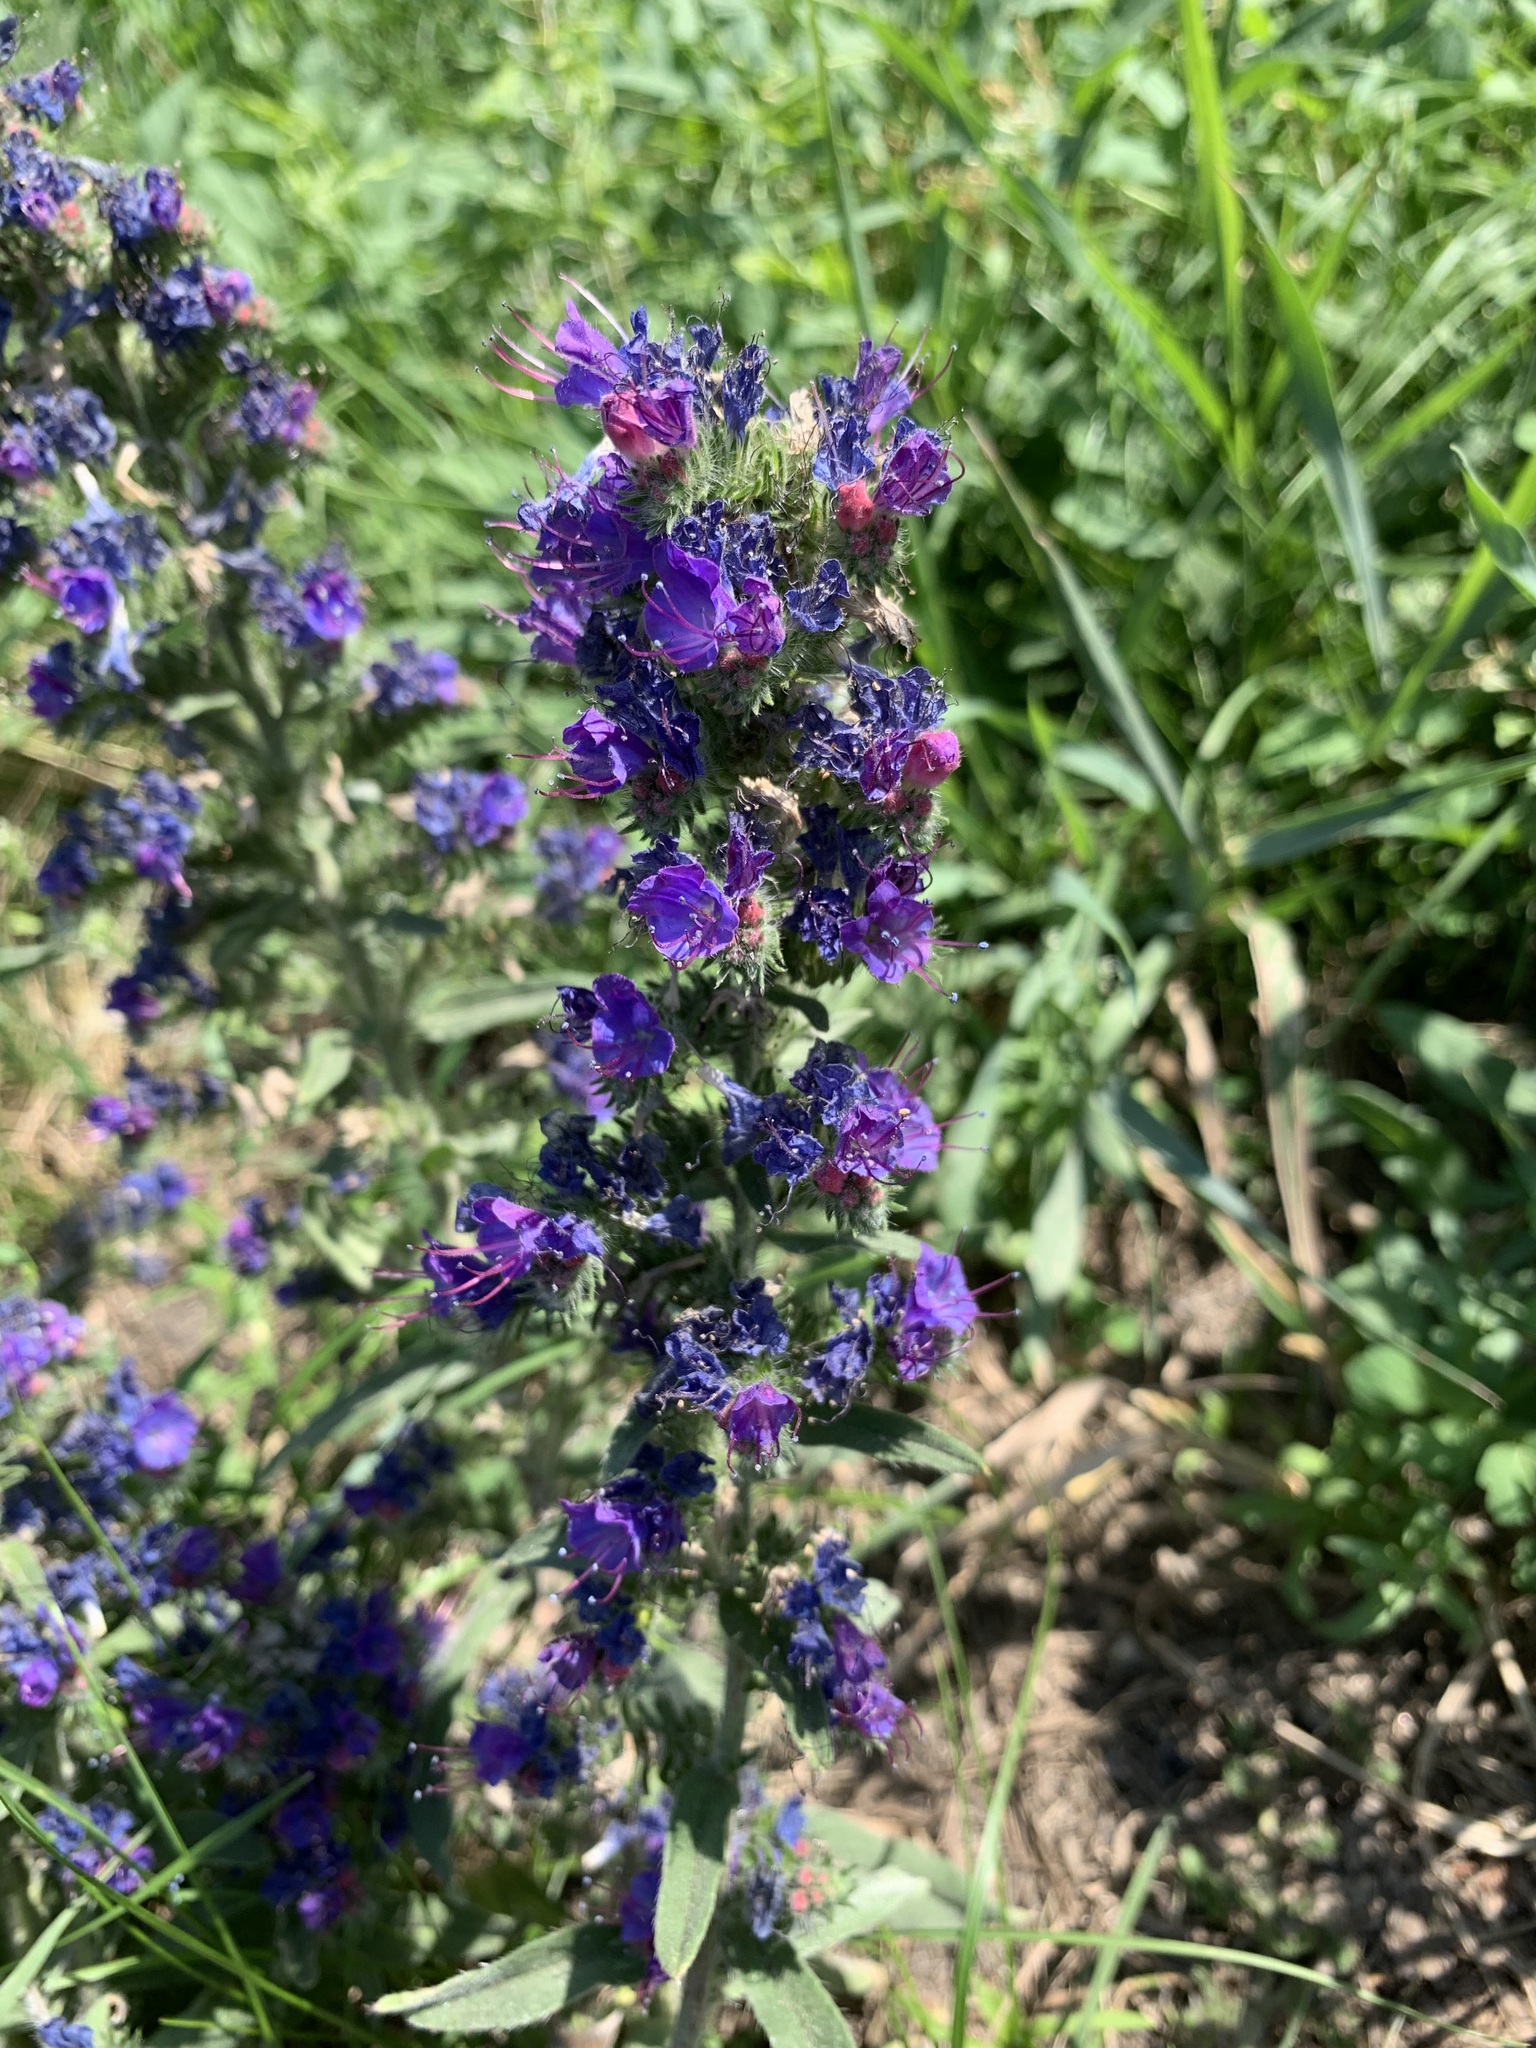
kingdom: Plantae
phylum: Tracheophyta
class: Magnoliopsida
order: Boraginales
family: Boraginaceae
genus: Echium
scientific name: Echium vulgare
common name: Common viper's bugloss
